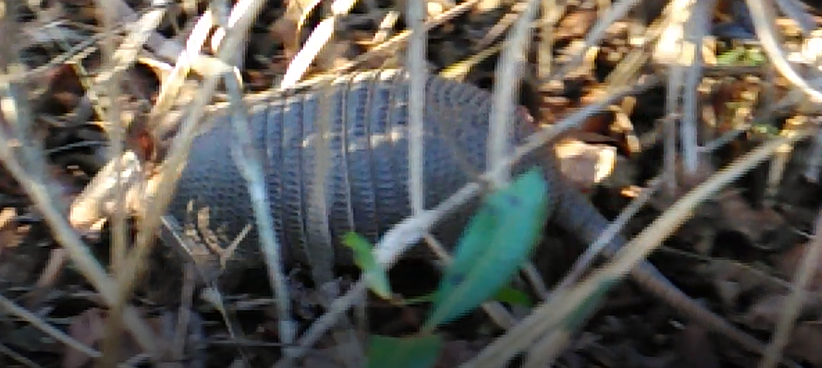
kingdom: Animalia
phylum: Chordata
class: Mammalia
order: Cingulata
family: Dasypodidae
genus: Dasypus
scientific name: Dasypus septemcinctus
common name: Seven-banded armadillo
